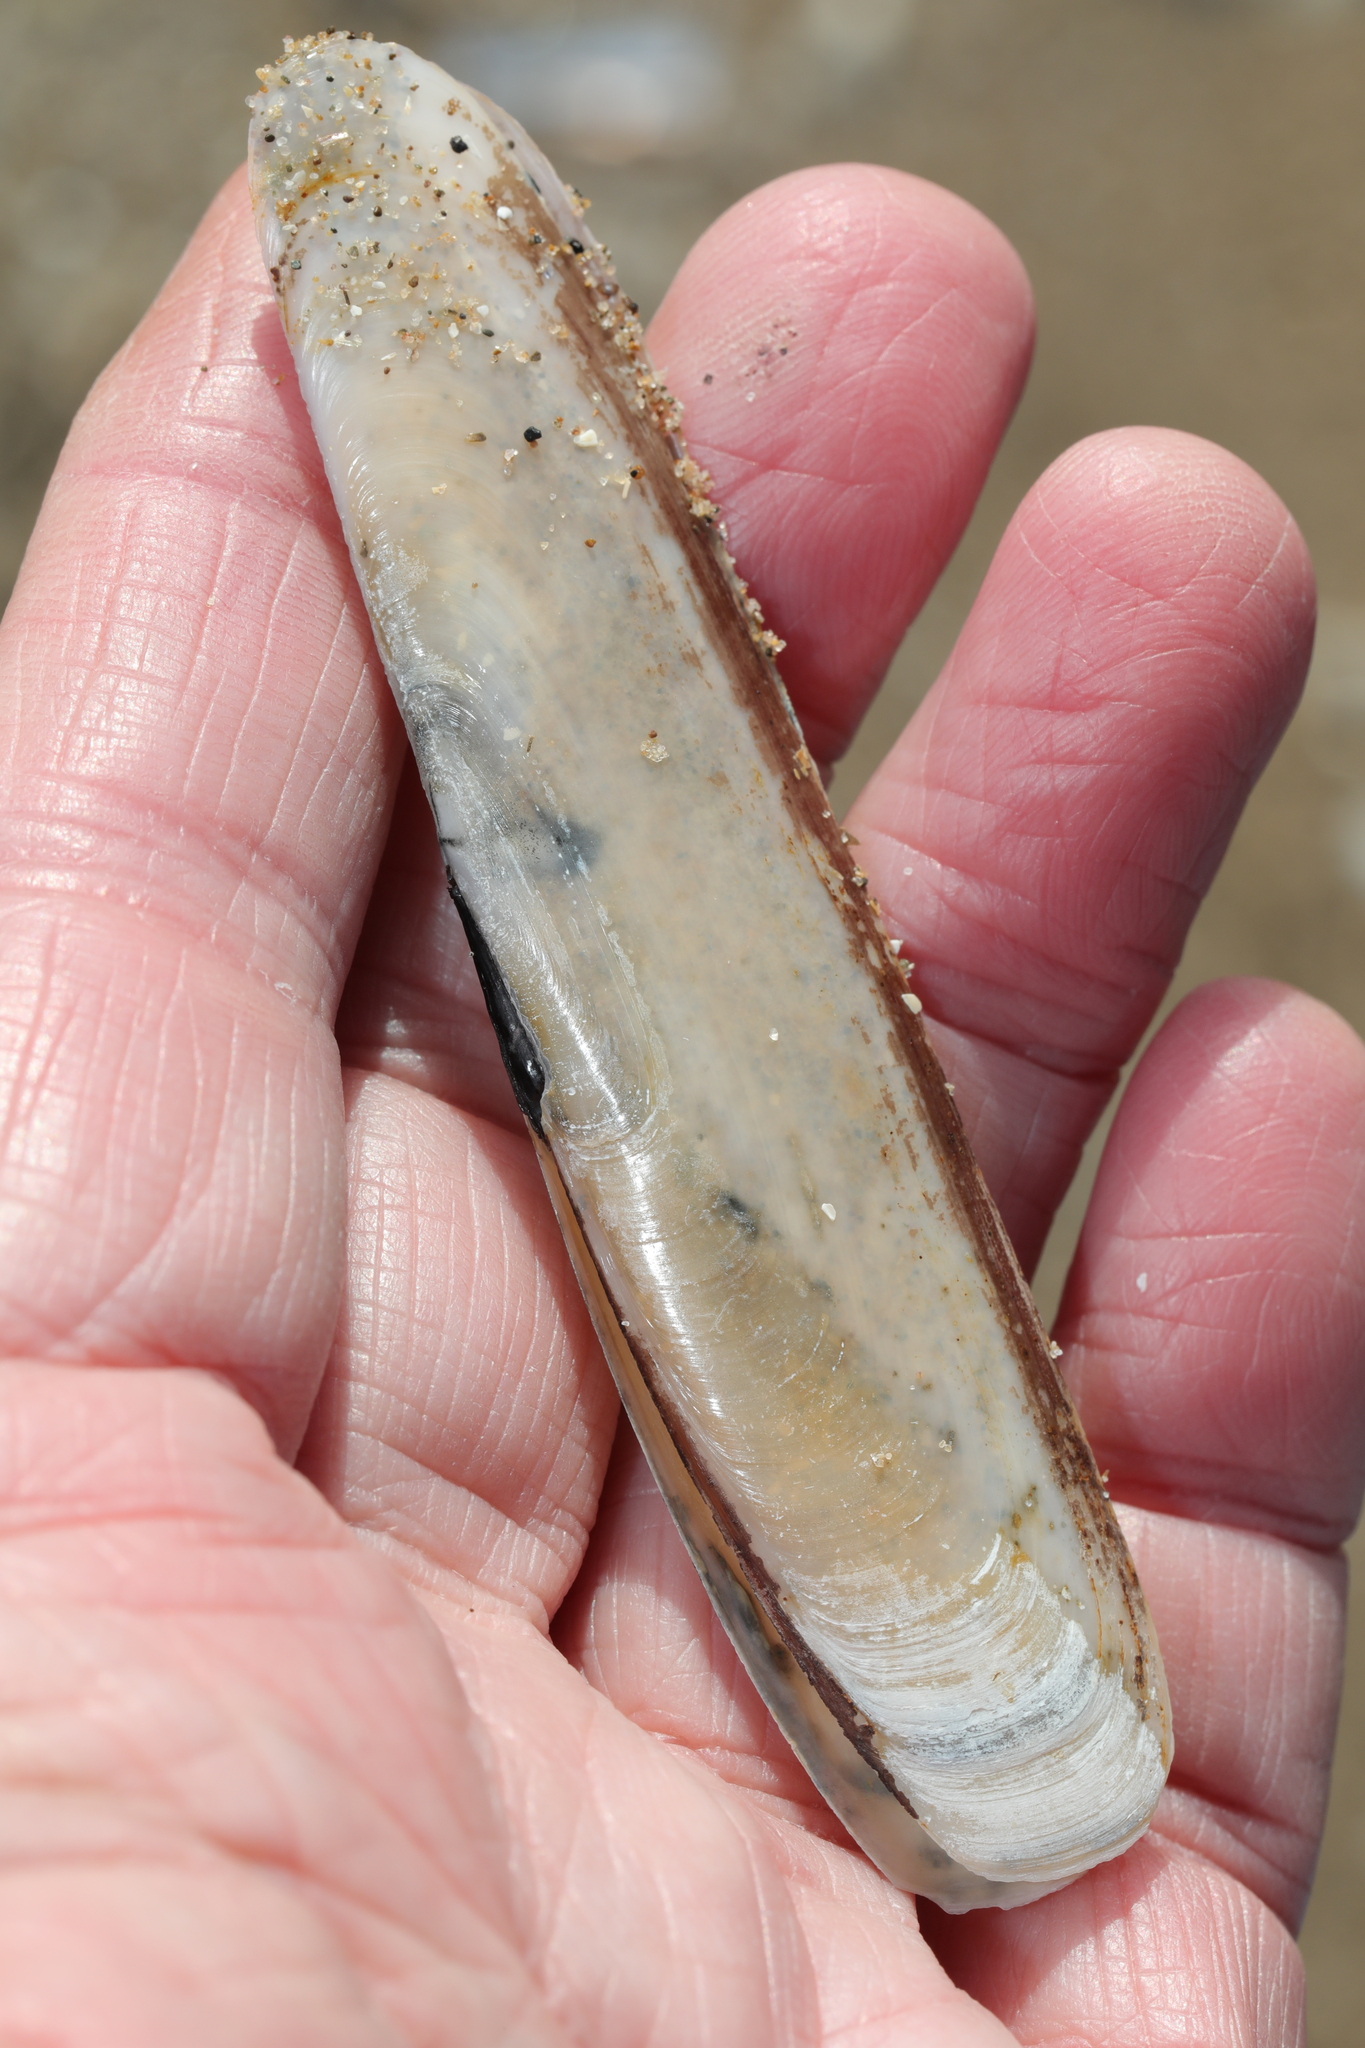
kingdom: Animalia
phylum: Mollusca
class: Bivalvia
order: Adapedonta
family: Pharidae
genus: Pharus
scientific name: Pharus legumen
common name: Bean razor clam
